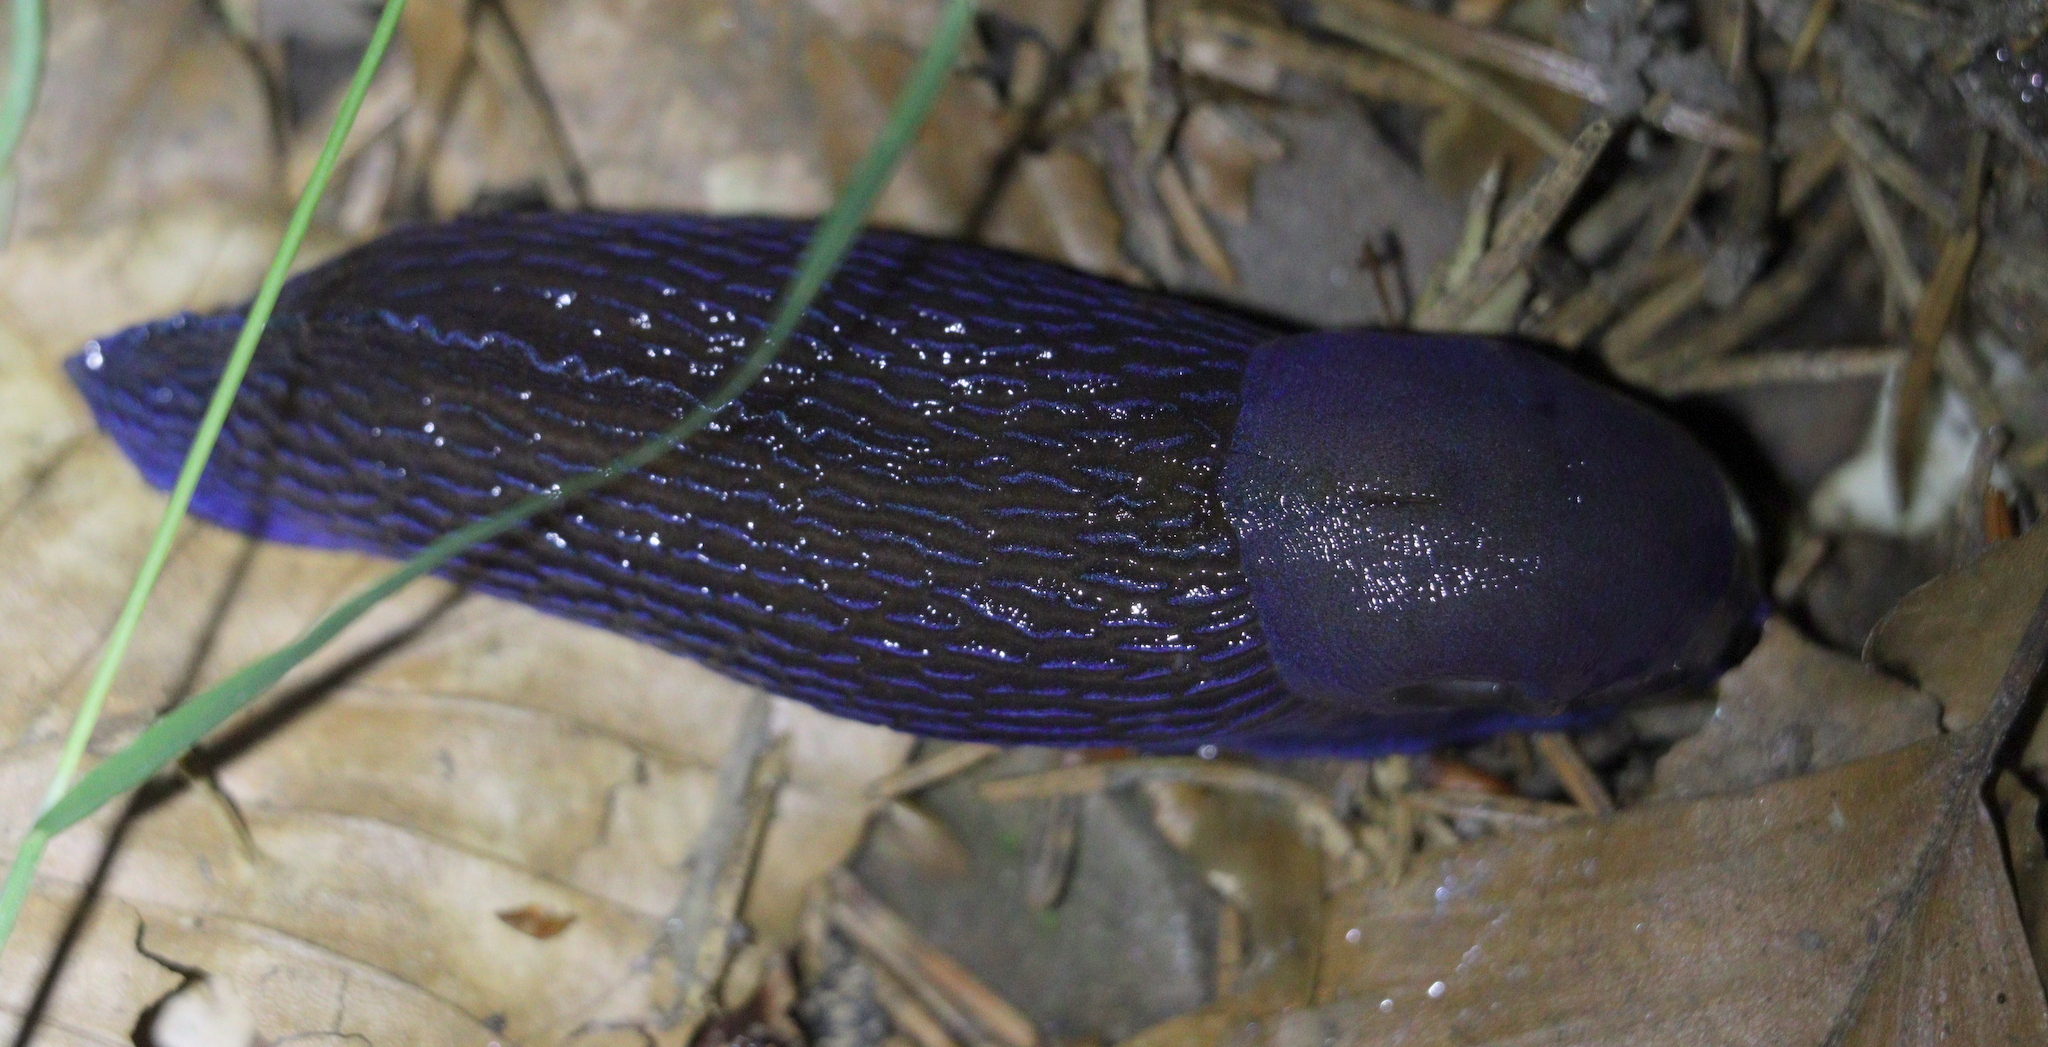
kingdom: Animalia
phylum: Mollusca
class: Gastropoda
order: Stylommatophora
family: Limacidae
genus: Bielzia
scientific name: Bielzia coerulans
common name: Carpathian blue slug
